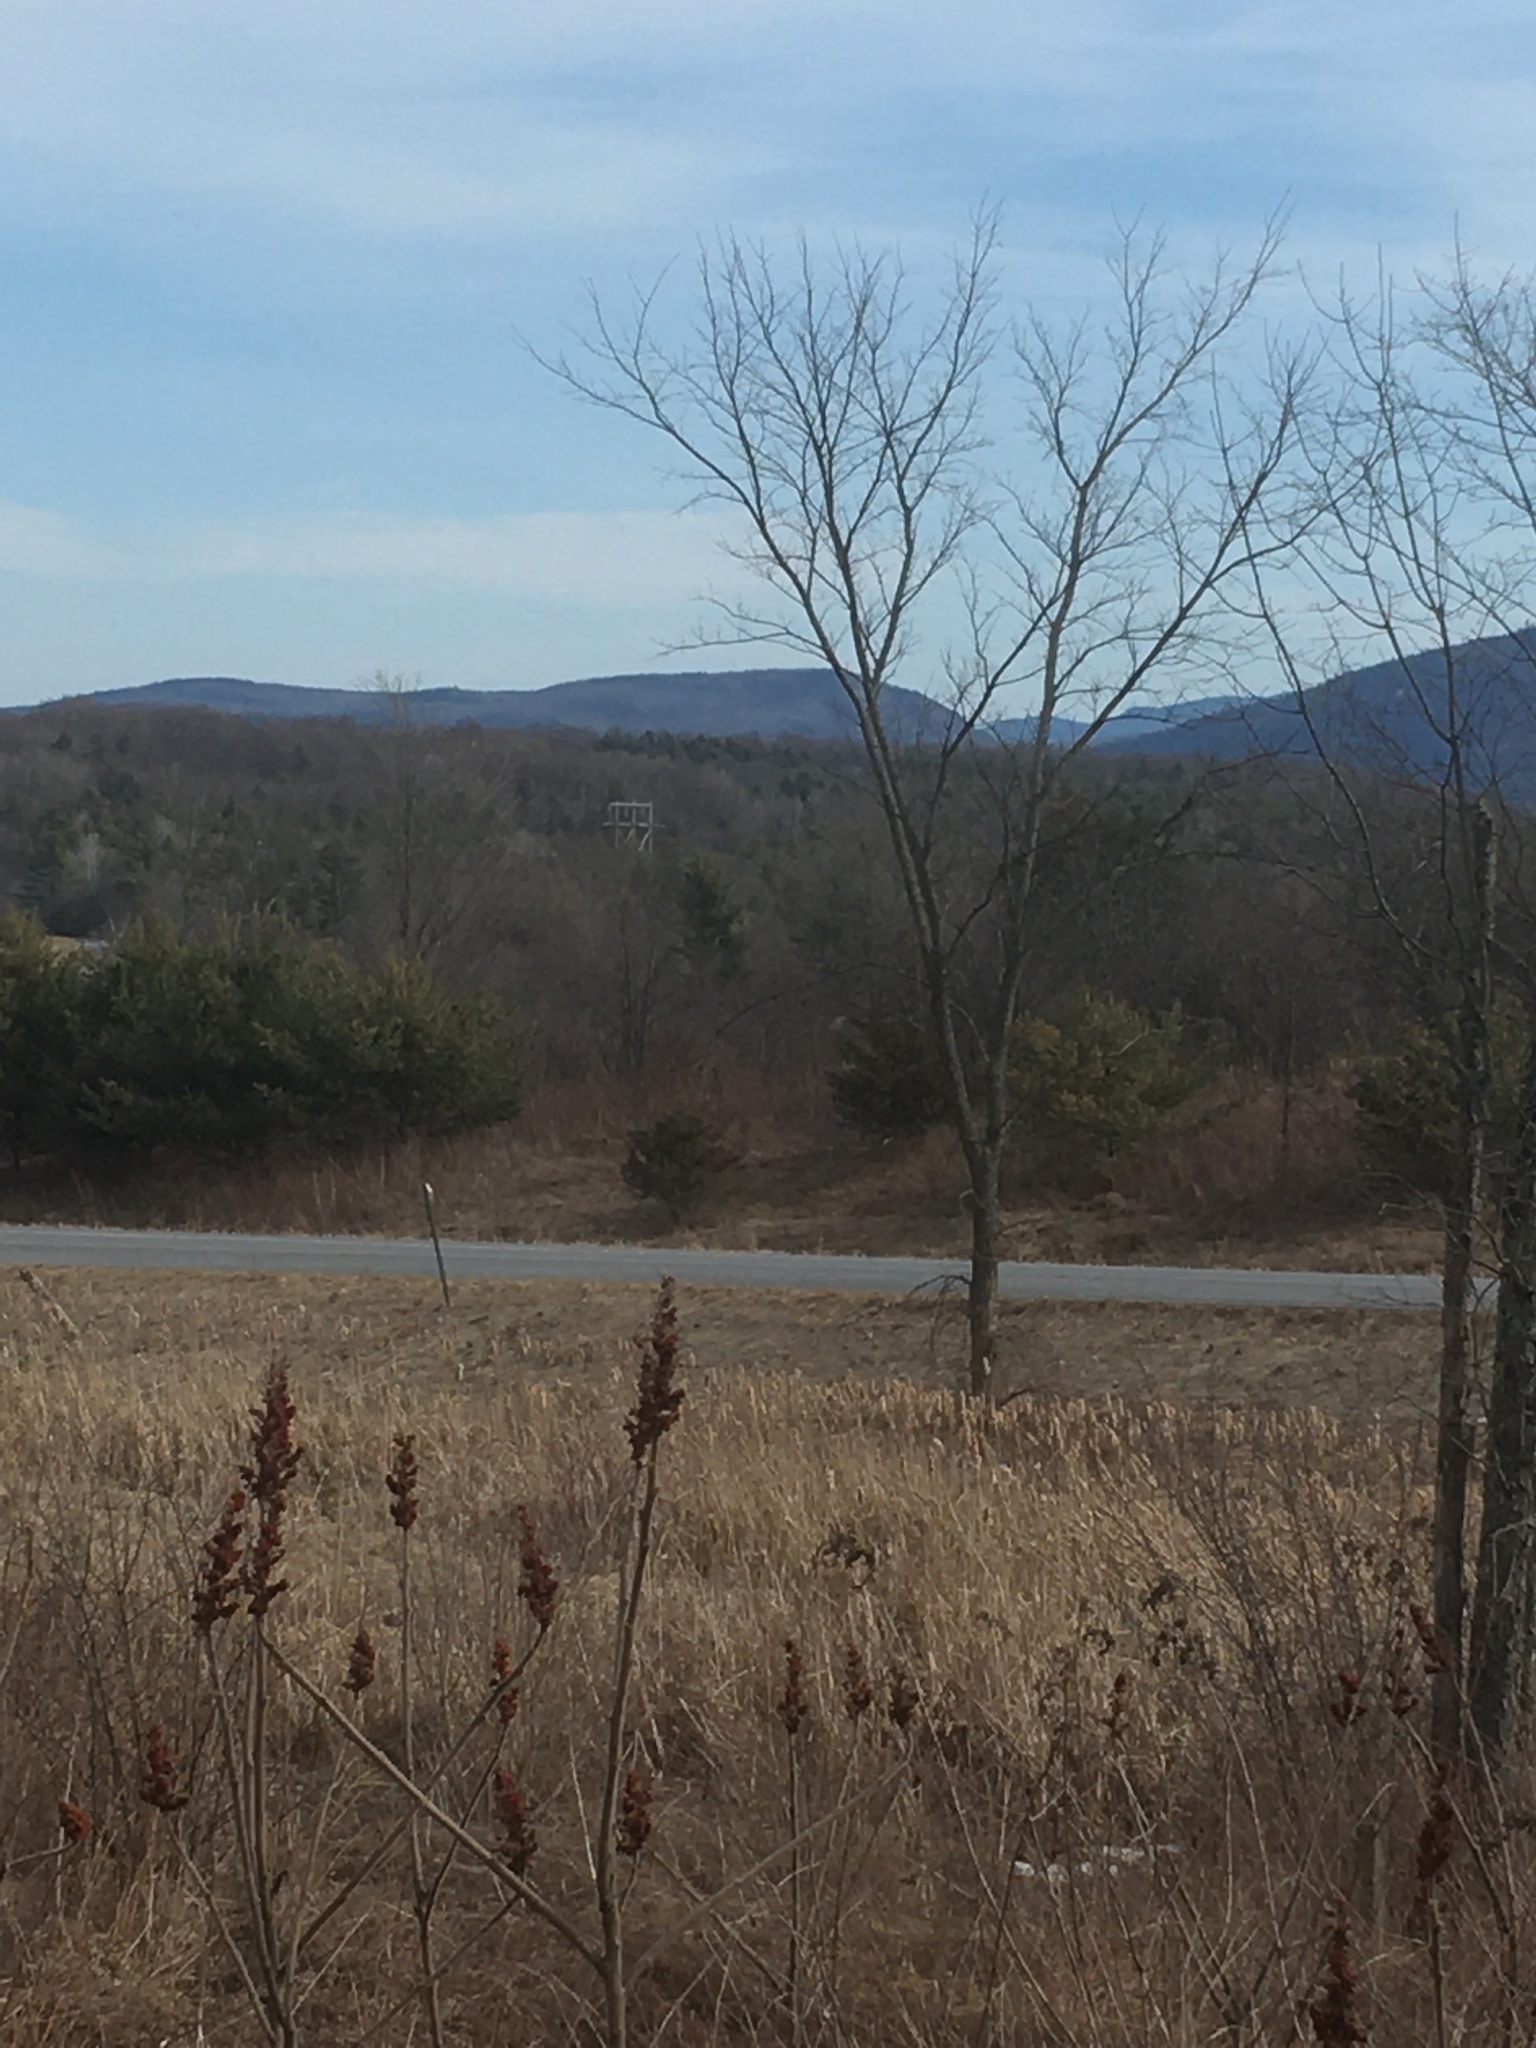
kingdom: Plantae
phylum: Tracheophyta
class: Magnoliopsida
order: Rosales
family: Ulmaceae
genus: Ulmus
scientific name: Ulmus americana
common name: American elm
